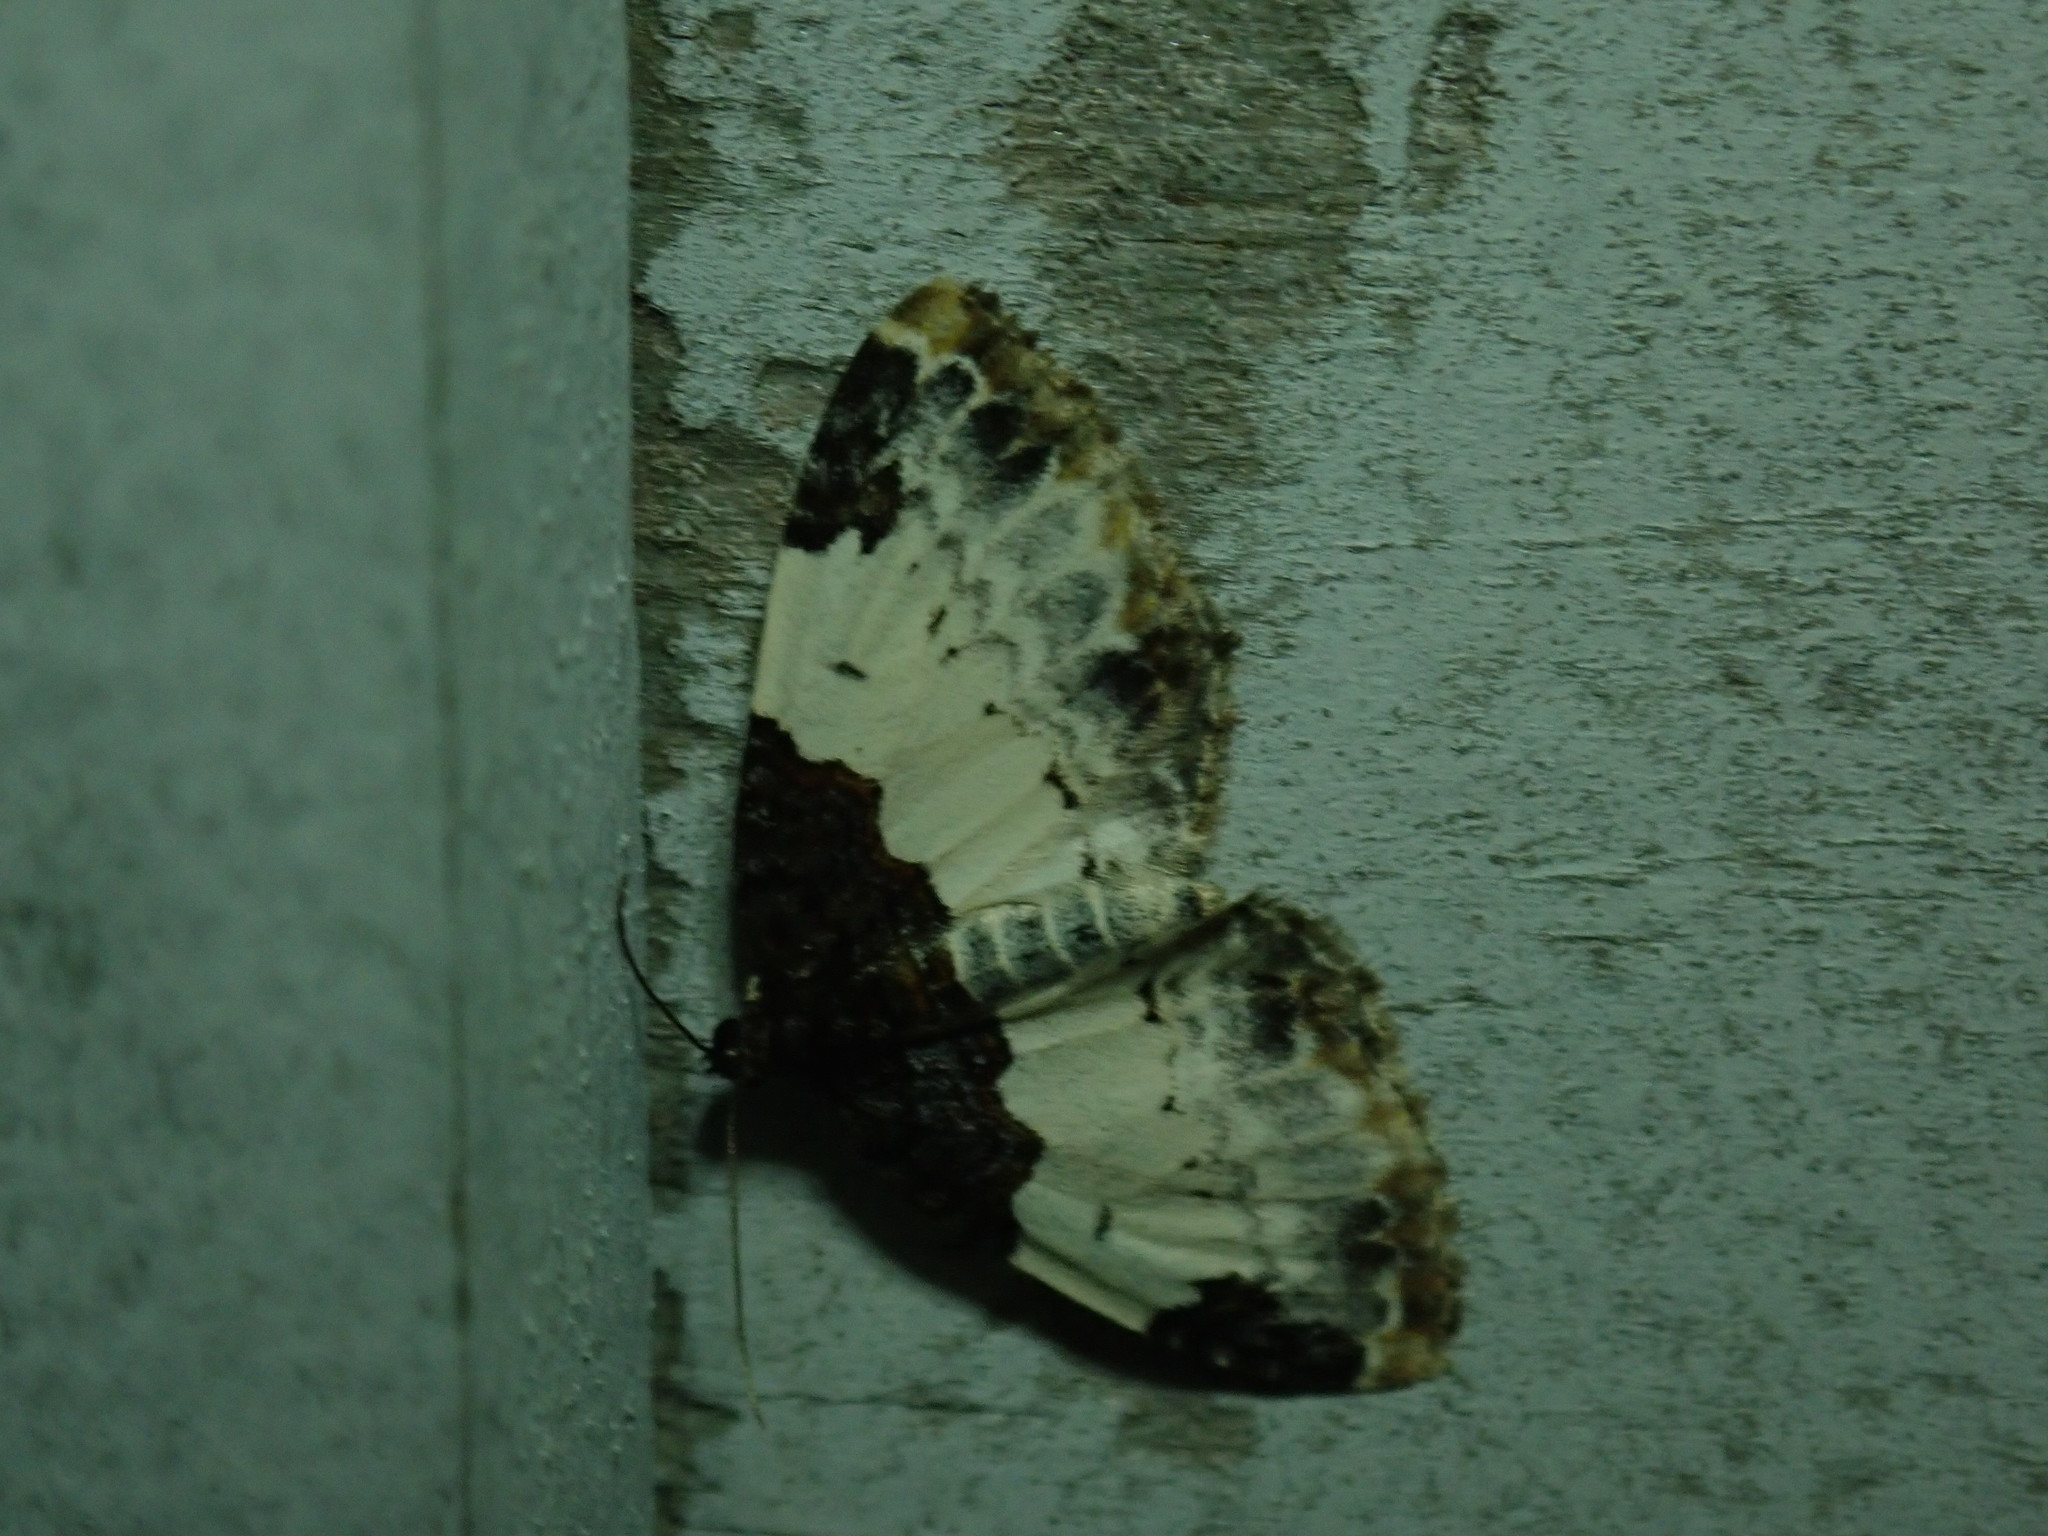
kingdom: Animalia
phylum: Arthropoda
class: Insecta
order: Lepidoptera
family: Geometridae
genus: Mesoleuca
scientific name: Mesoleuca ruficillata
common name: White-ribboned carpet moth
